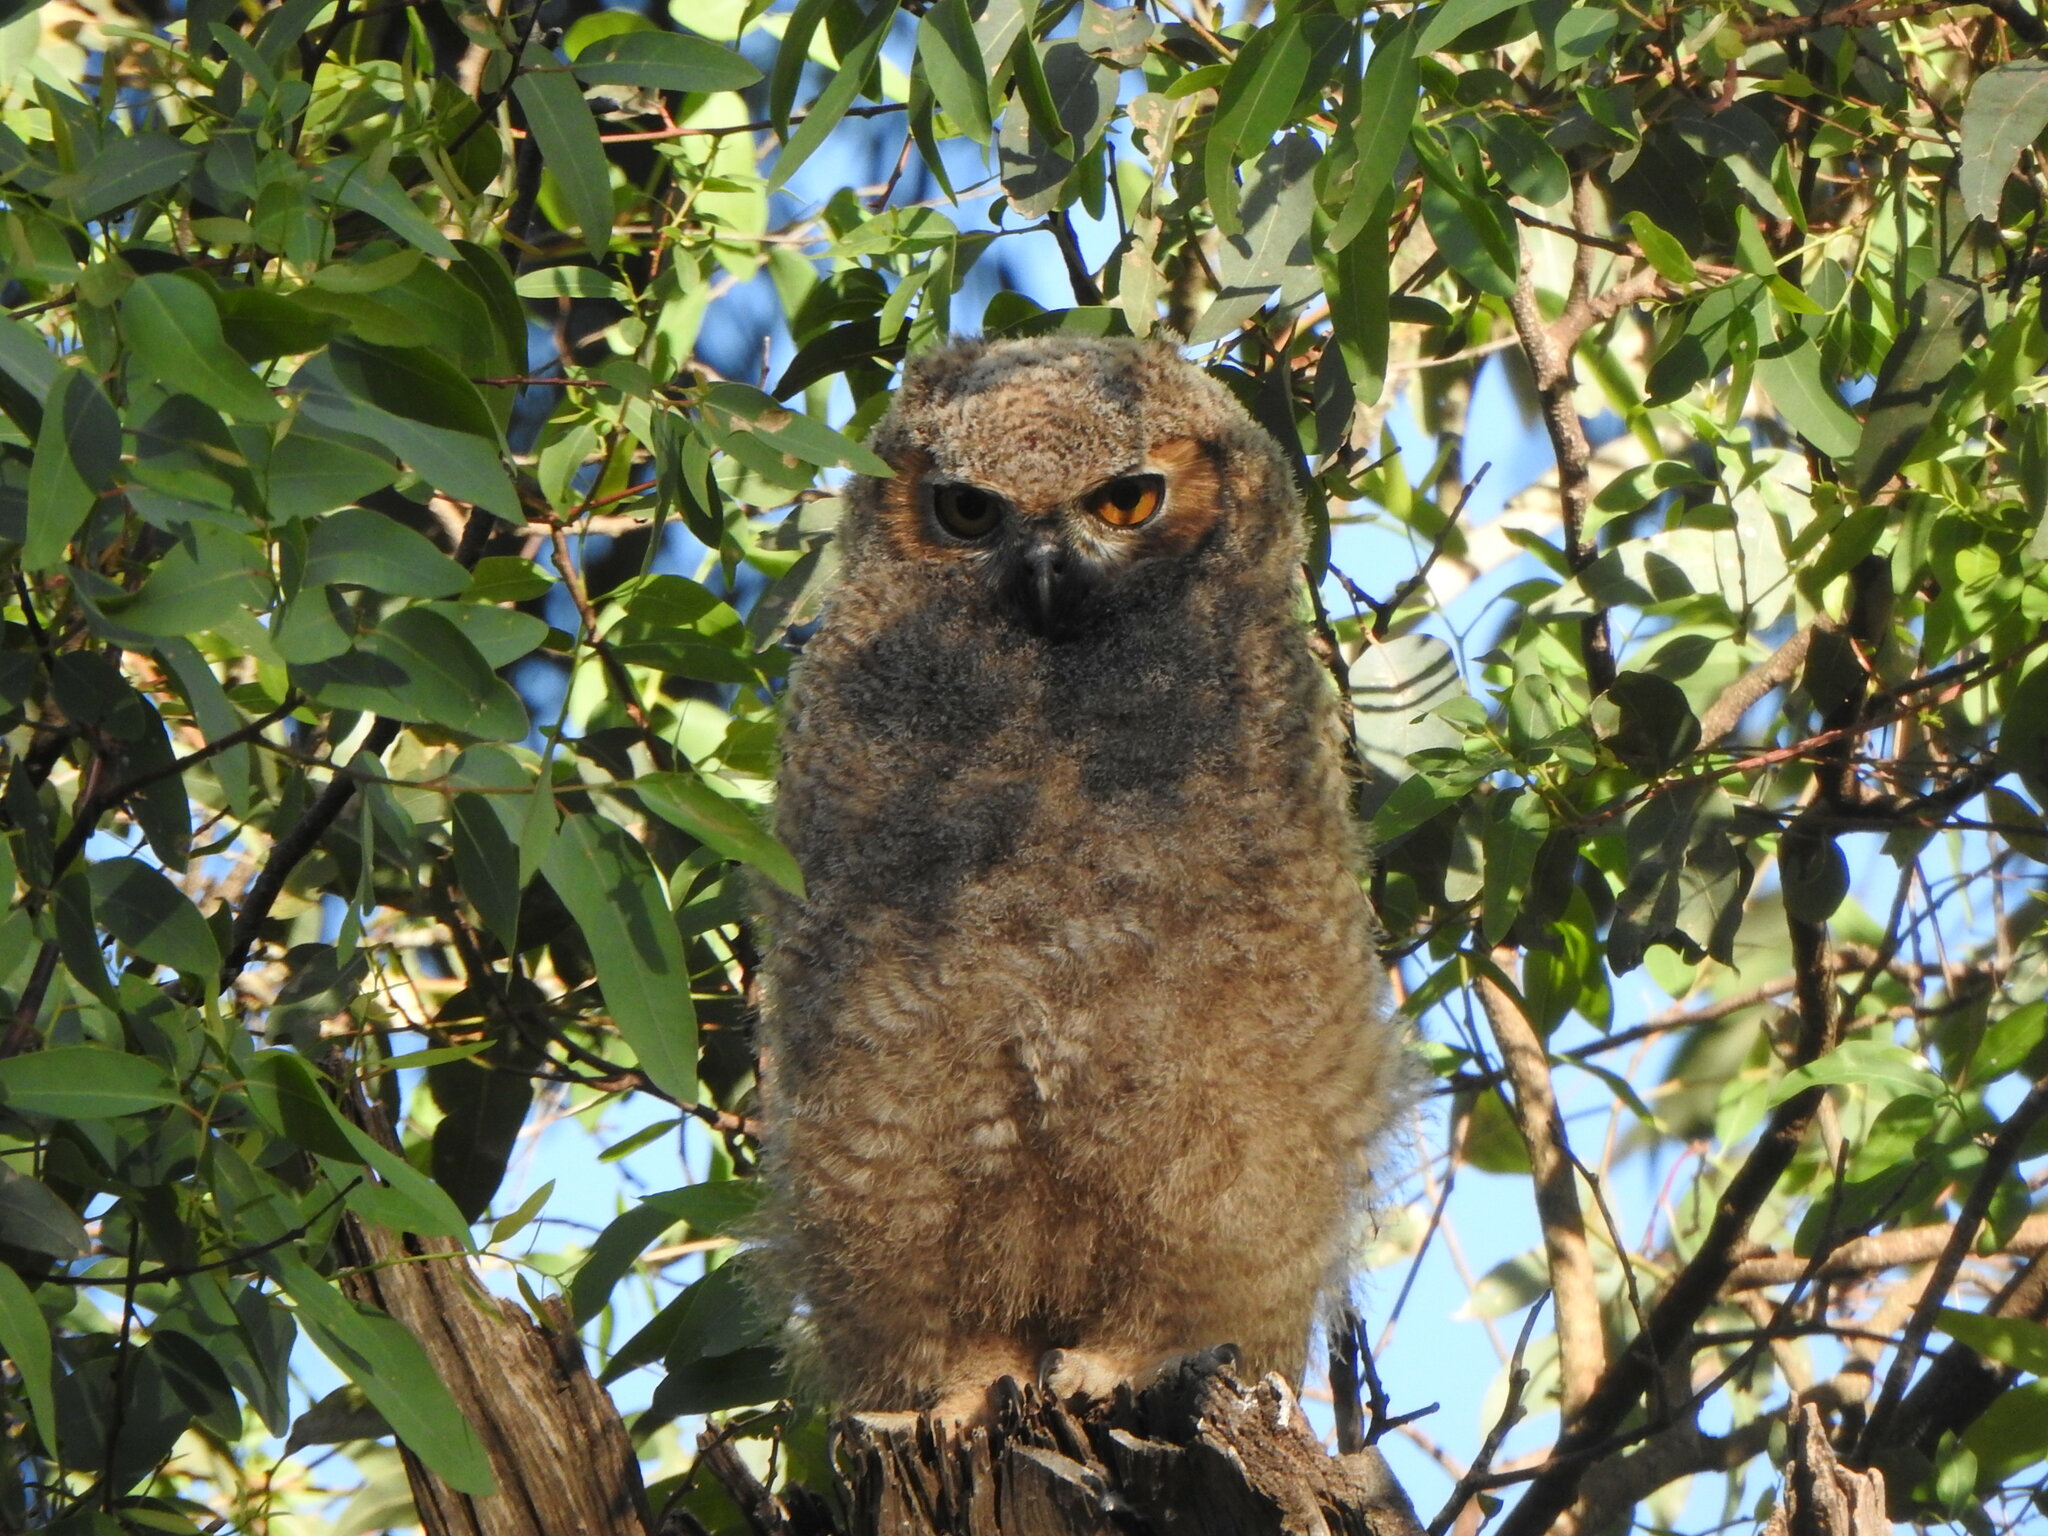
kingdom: Animalia
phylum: Chordata
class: Aves
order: Strigiformes
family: Strigidae
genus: Bubo
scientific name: Bubo virginianus
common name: Great horned owl
